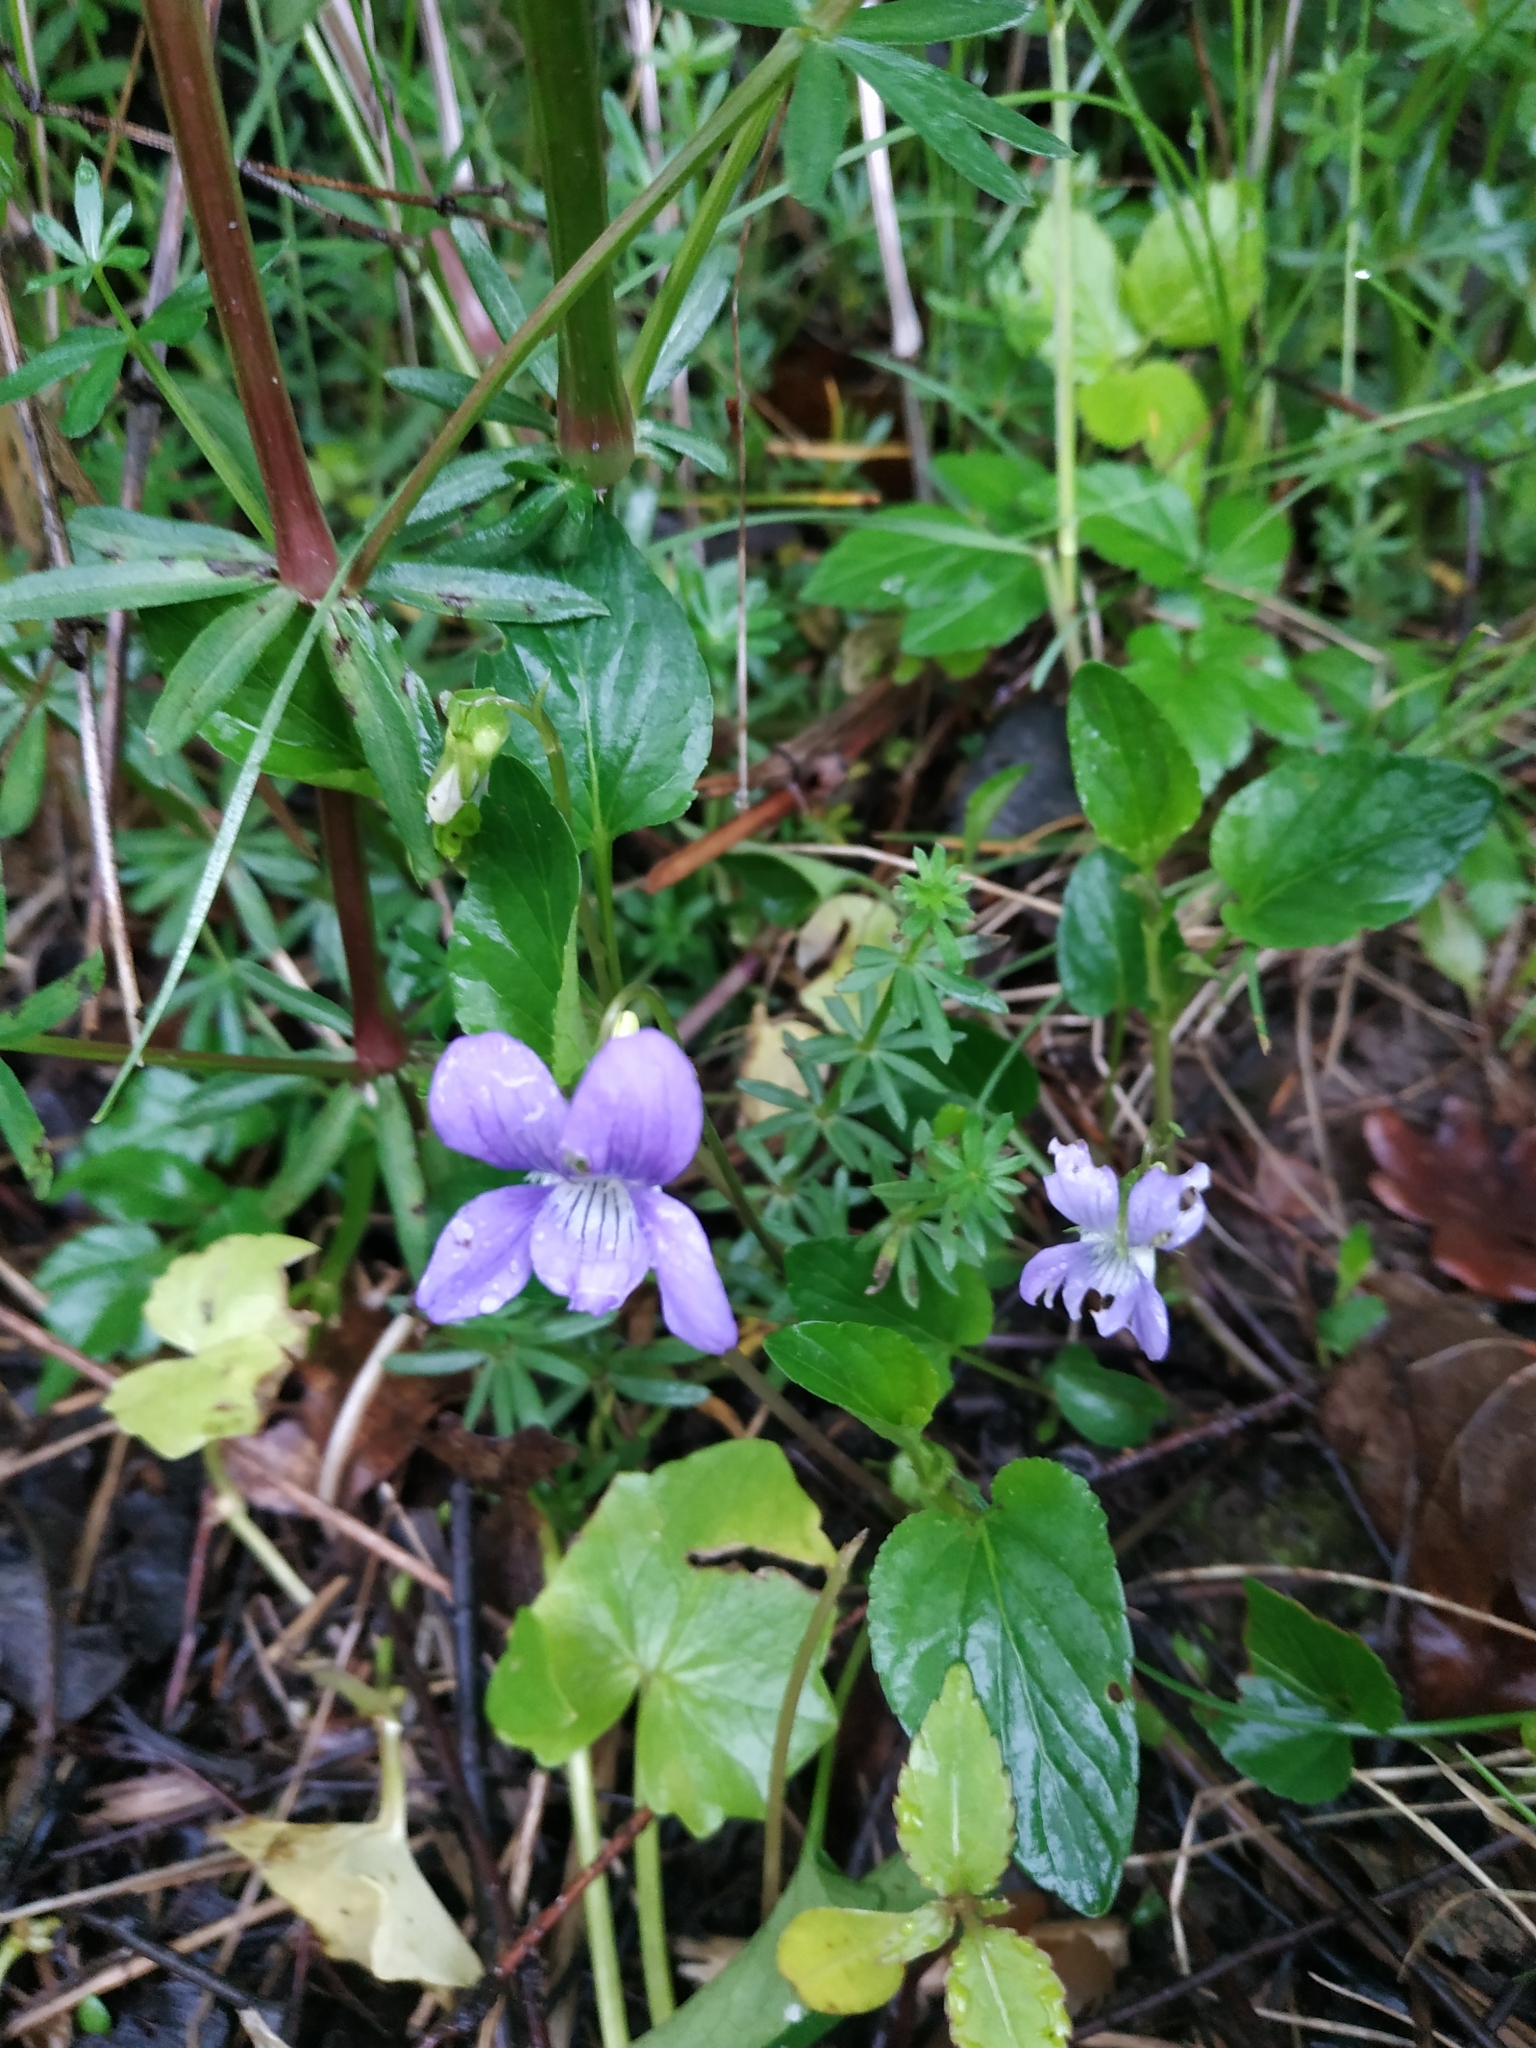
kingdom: Plantae
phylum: Tracheophyta
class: Magnoliopsida
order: Malpighiales
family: Violaceae
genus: Viola
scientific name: Viola canina
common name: Heath dog-violet
